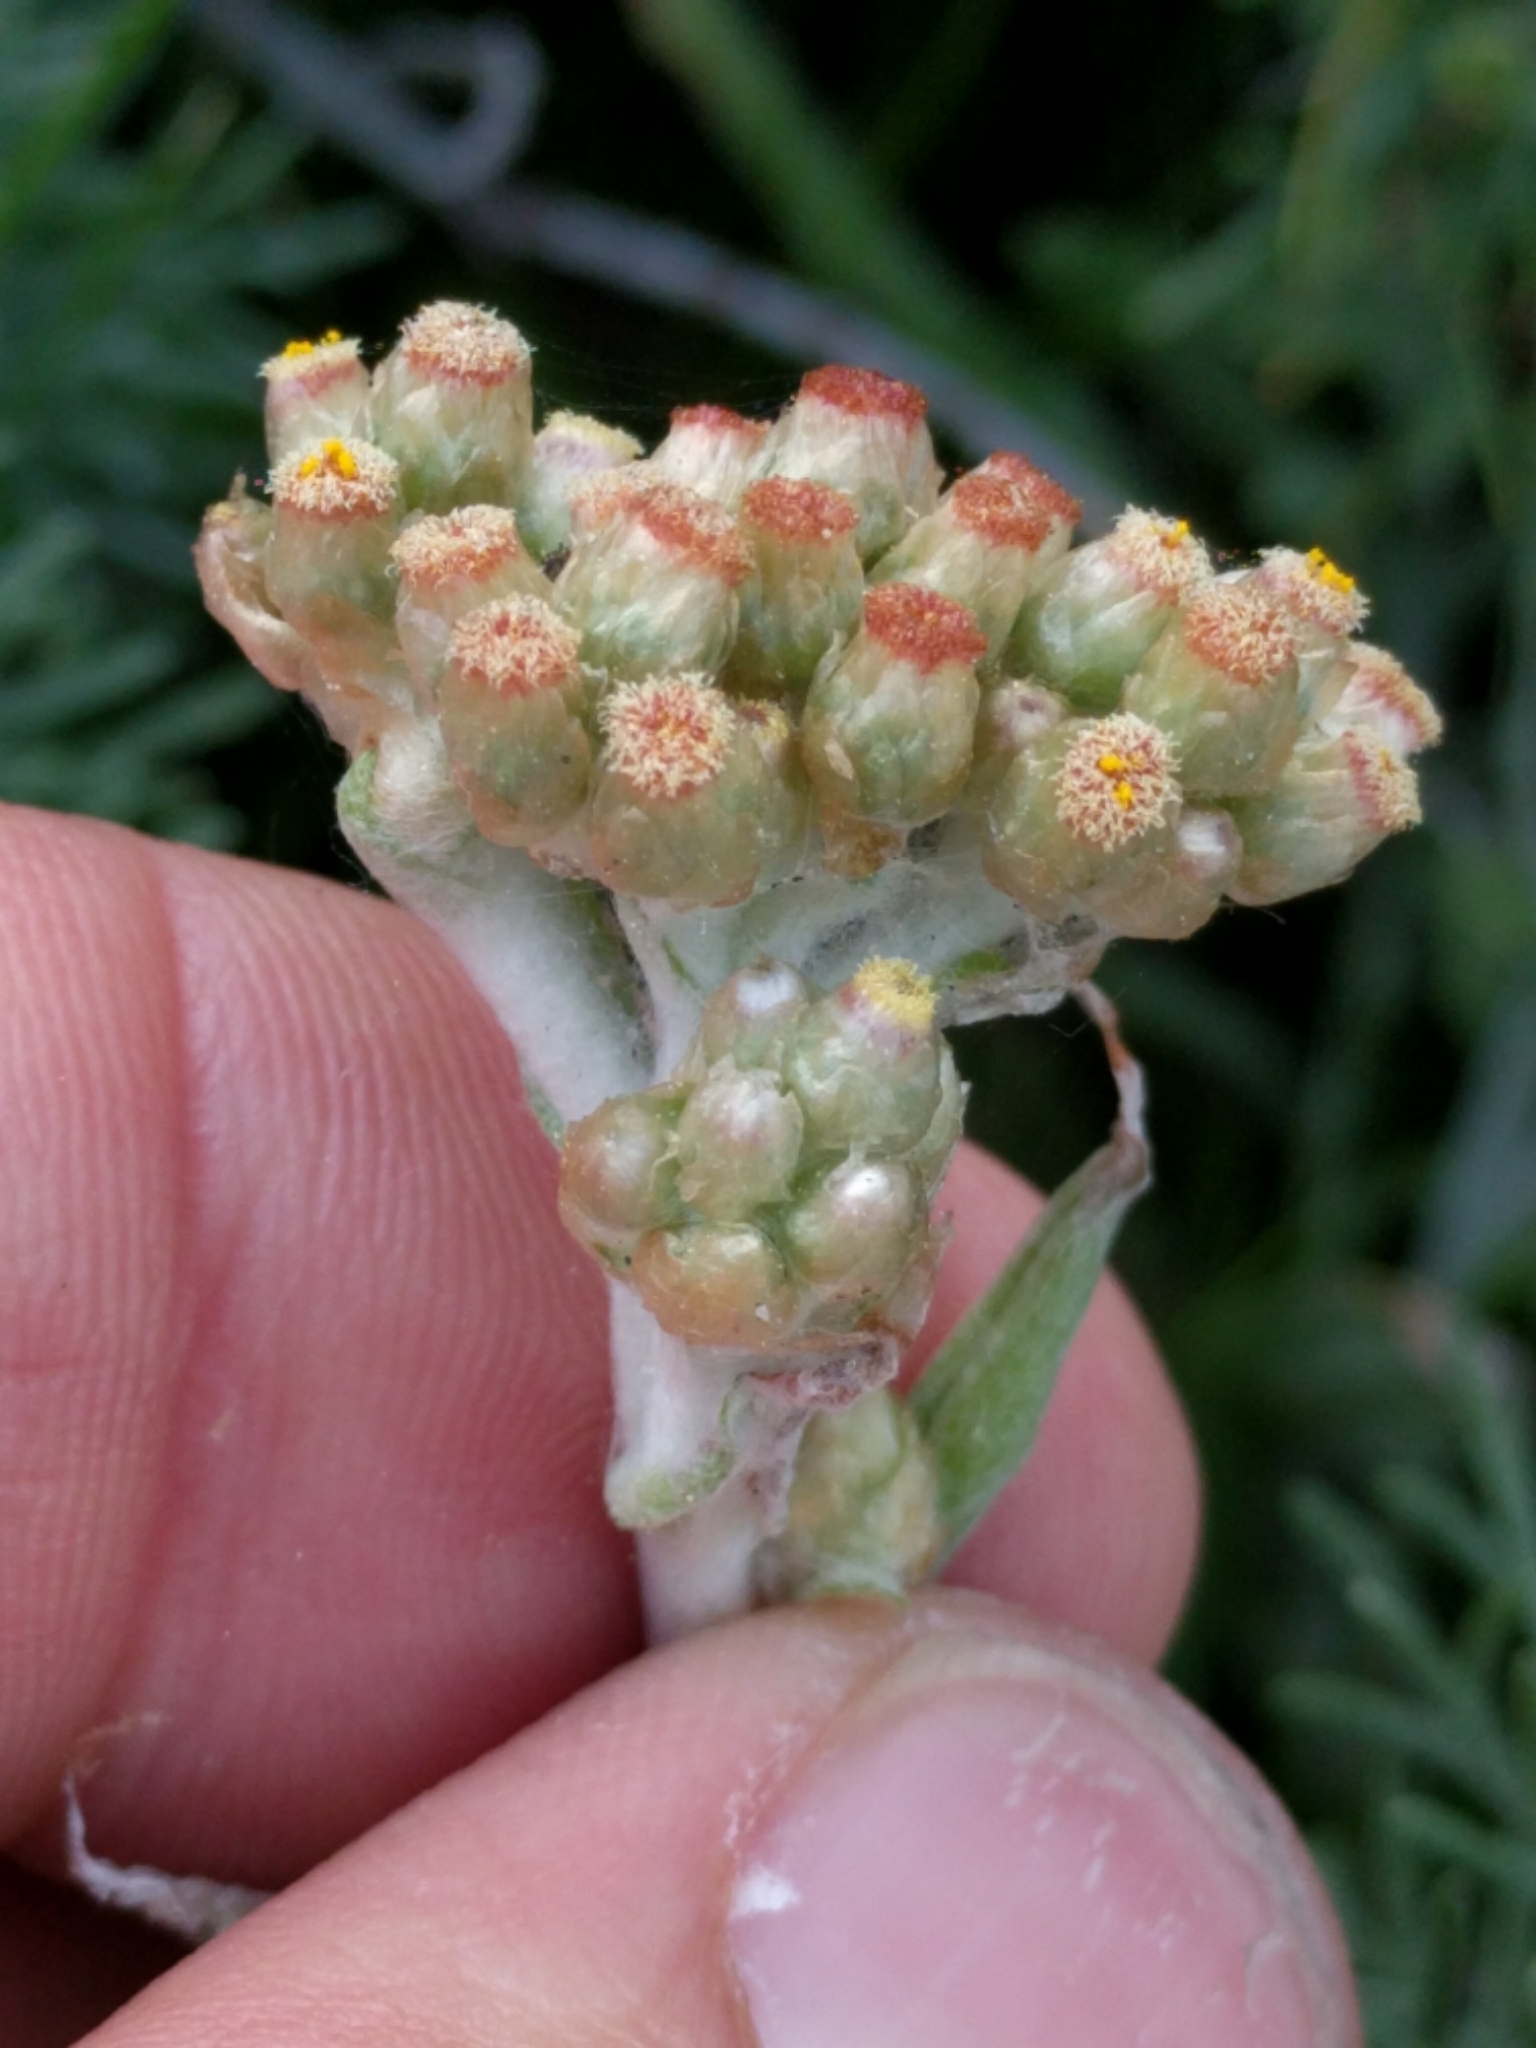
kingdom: Plantae
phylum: Tracheophyta
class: Magnoliopsida
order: Asterales
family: Asteraceae
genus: Helichrysum
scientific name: Helichrysum luteoalbum
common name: Daisy
